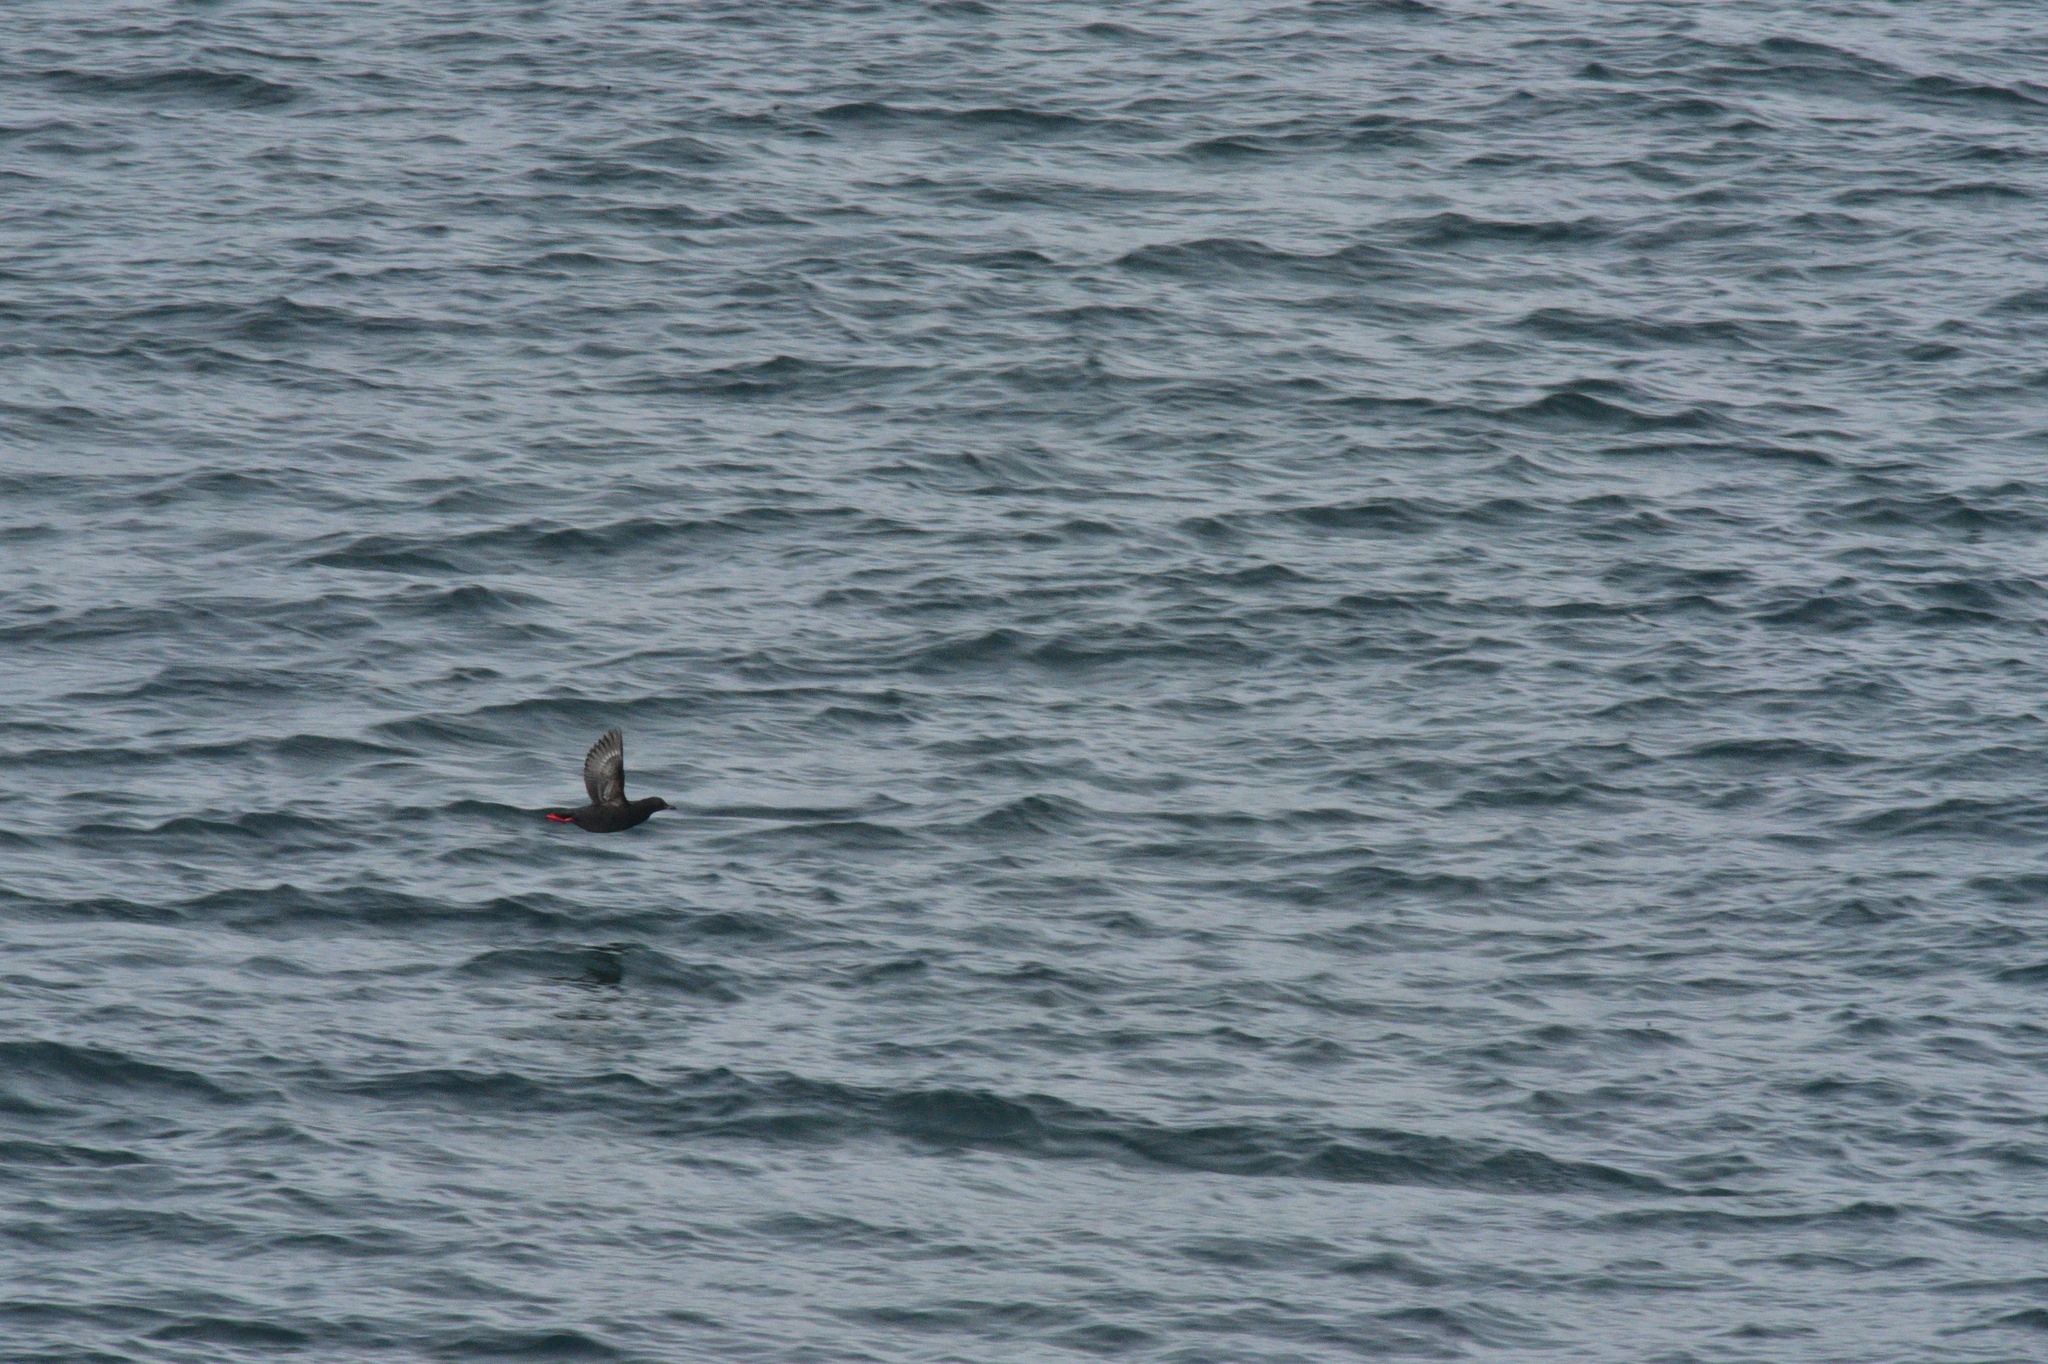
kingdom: Animalia
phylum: Chordata
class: Aves
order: Charadriiformes
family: Alcidae
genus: Cepphus
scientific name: Cepphus columba
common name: Pigeon guillemot
